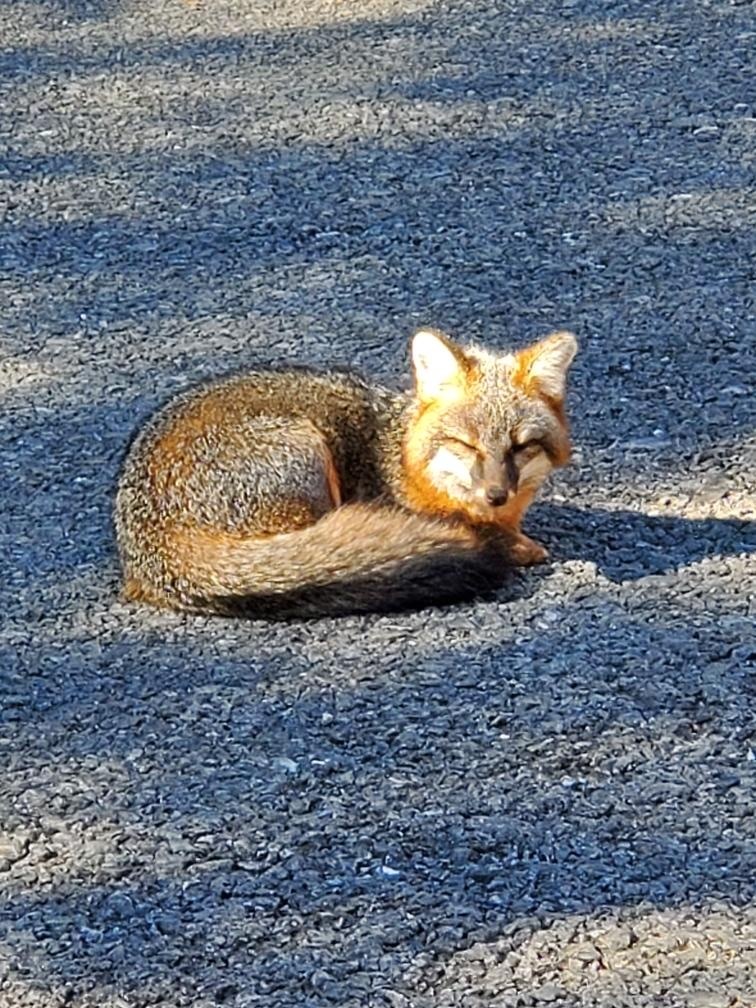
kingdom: Animalia
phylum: Chordata
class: Mammalia
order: Carnivora
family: Canidae
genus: Urocyon
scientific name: Urocyon cinereoargenteus
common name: Gray fox
